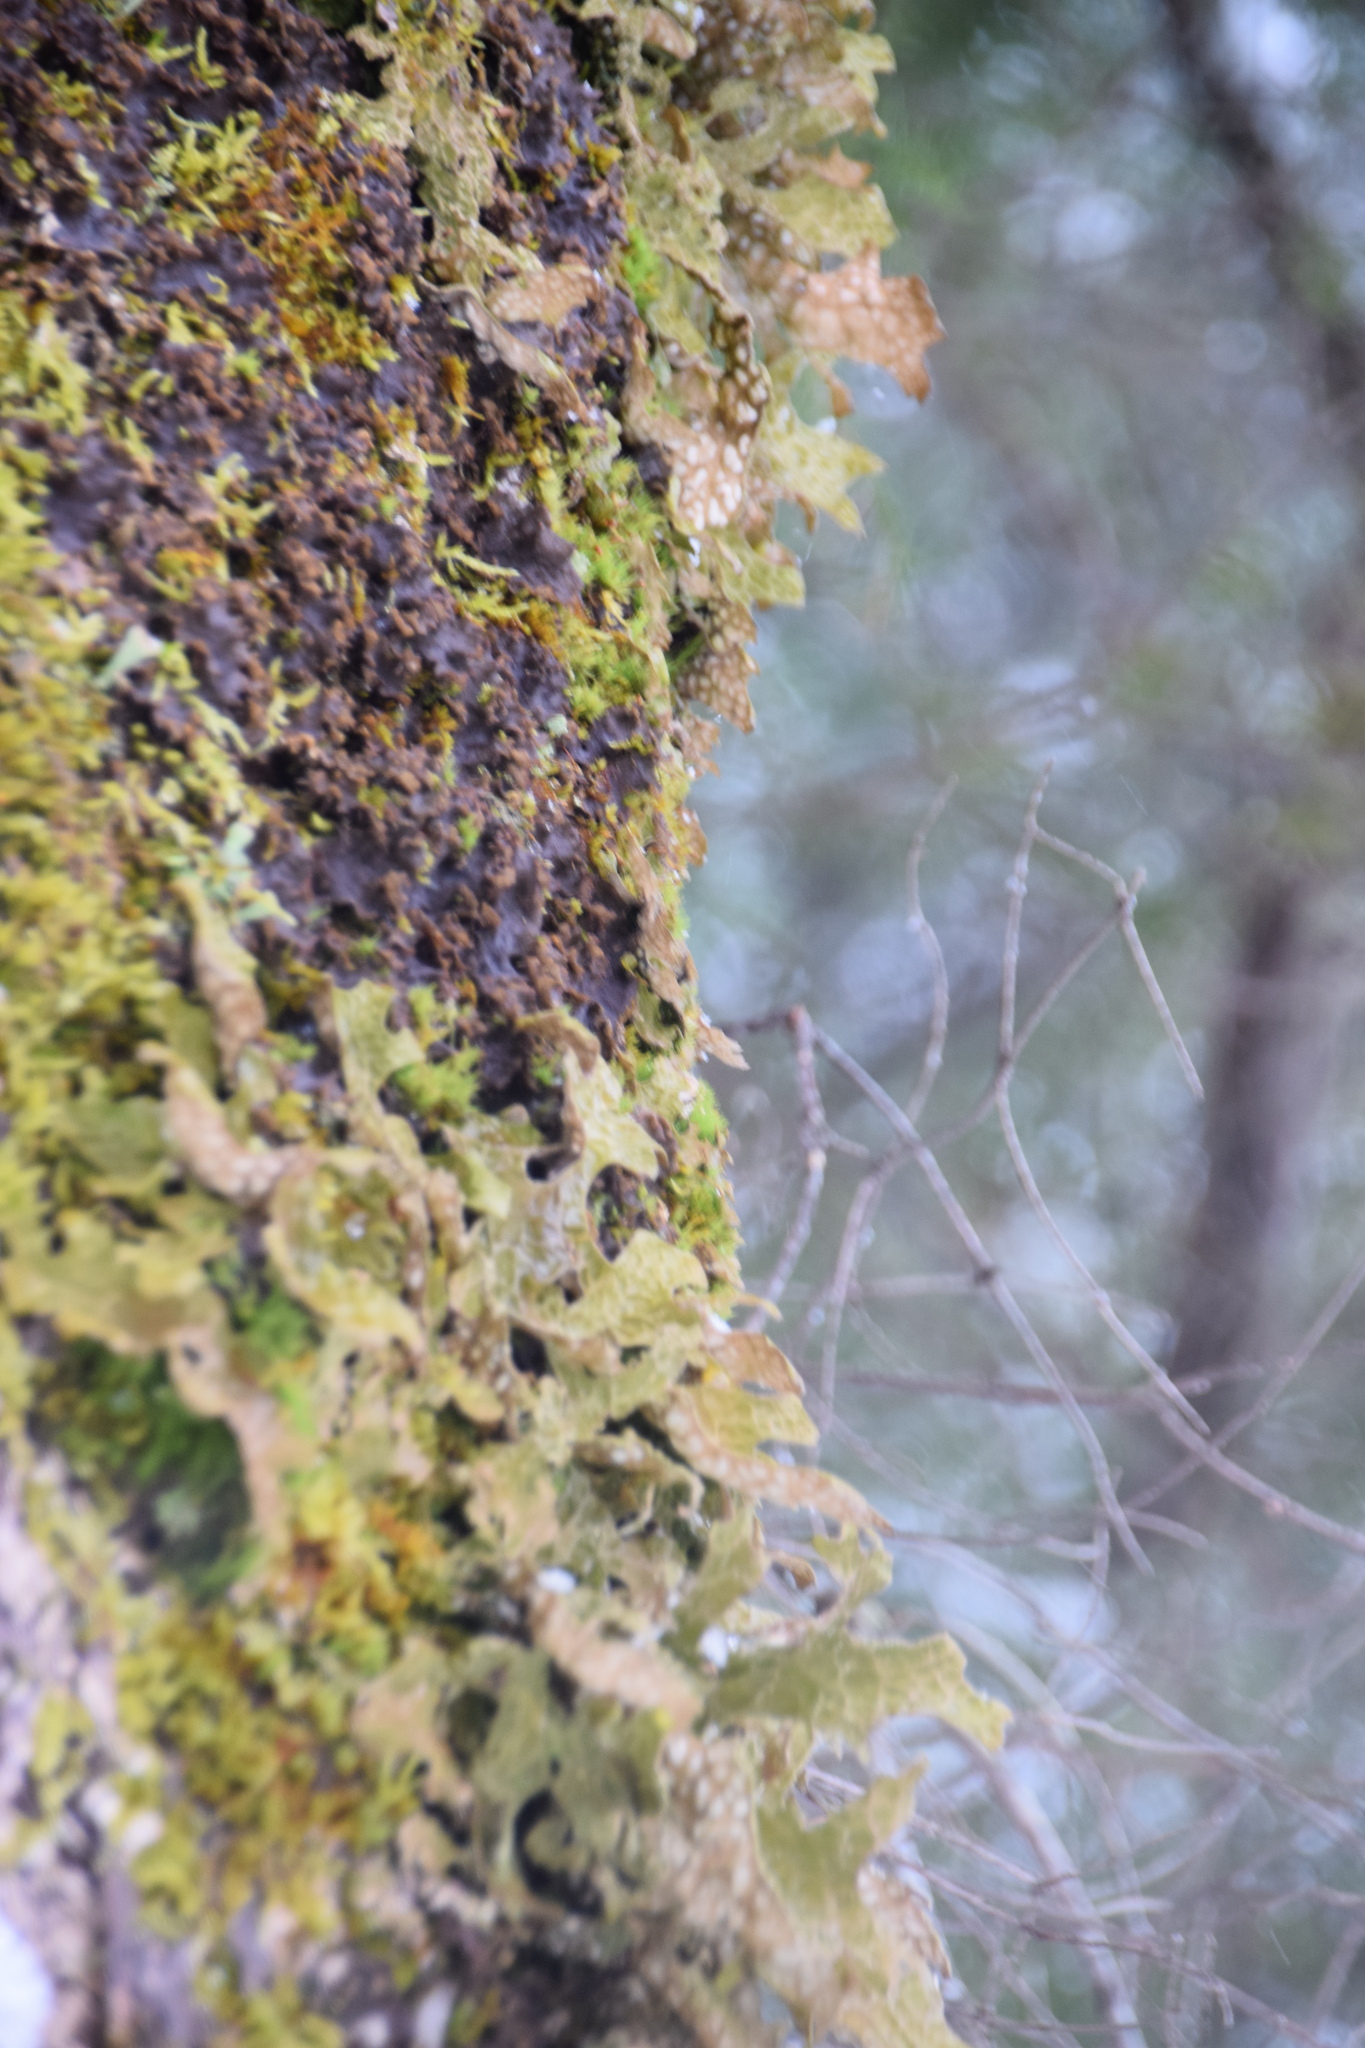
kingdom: Fungi
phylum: Ascomycota
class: Lecanoromycetes
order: Peltigerales
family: Lobariaceae
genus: Lobaria
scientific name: Lobaria pulmonaria
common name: Lungwort
